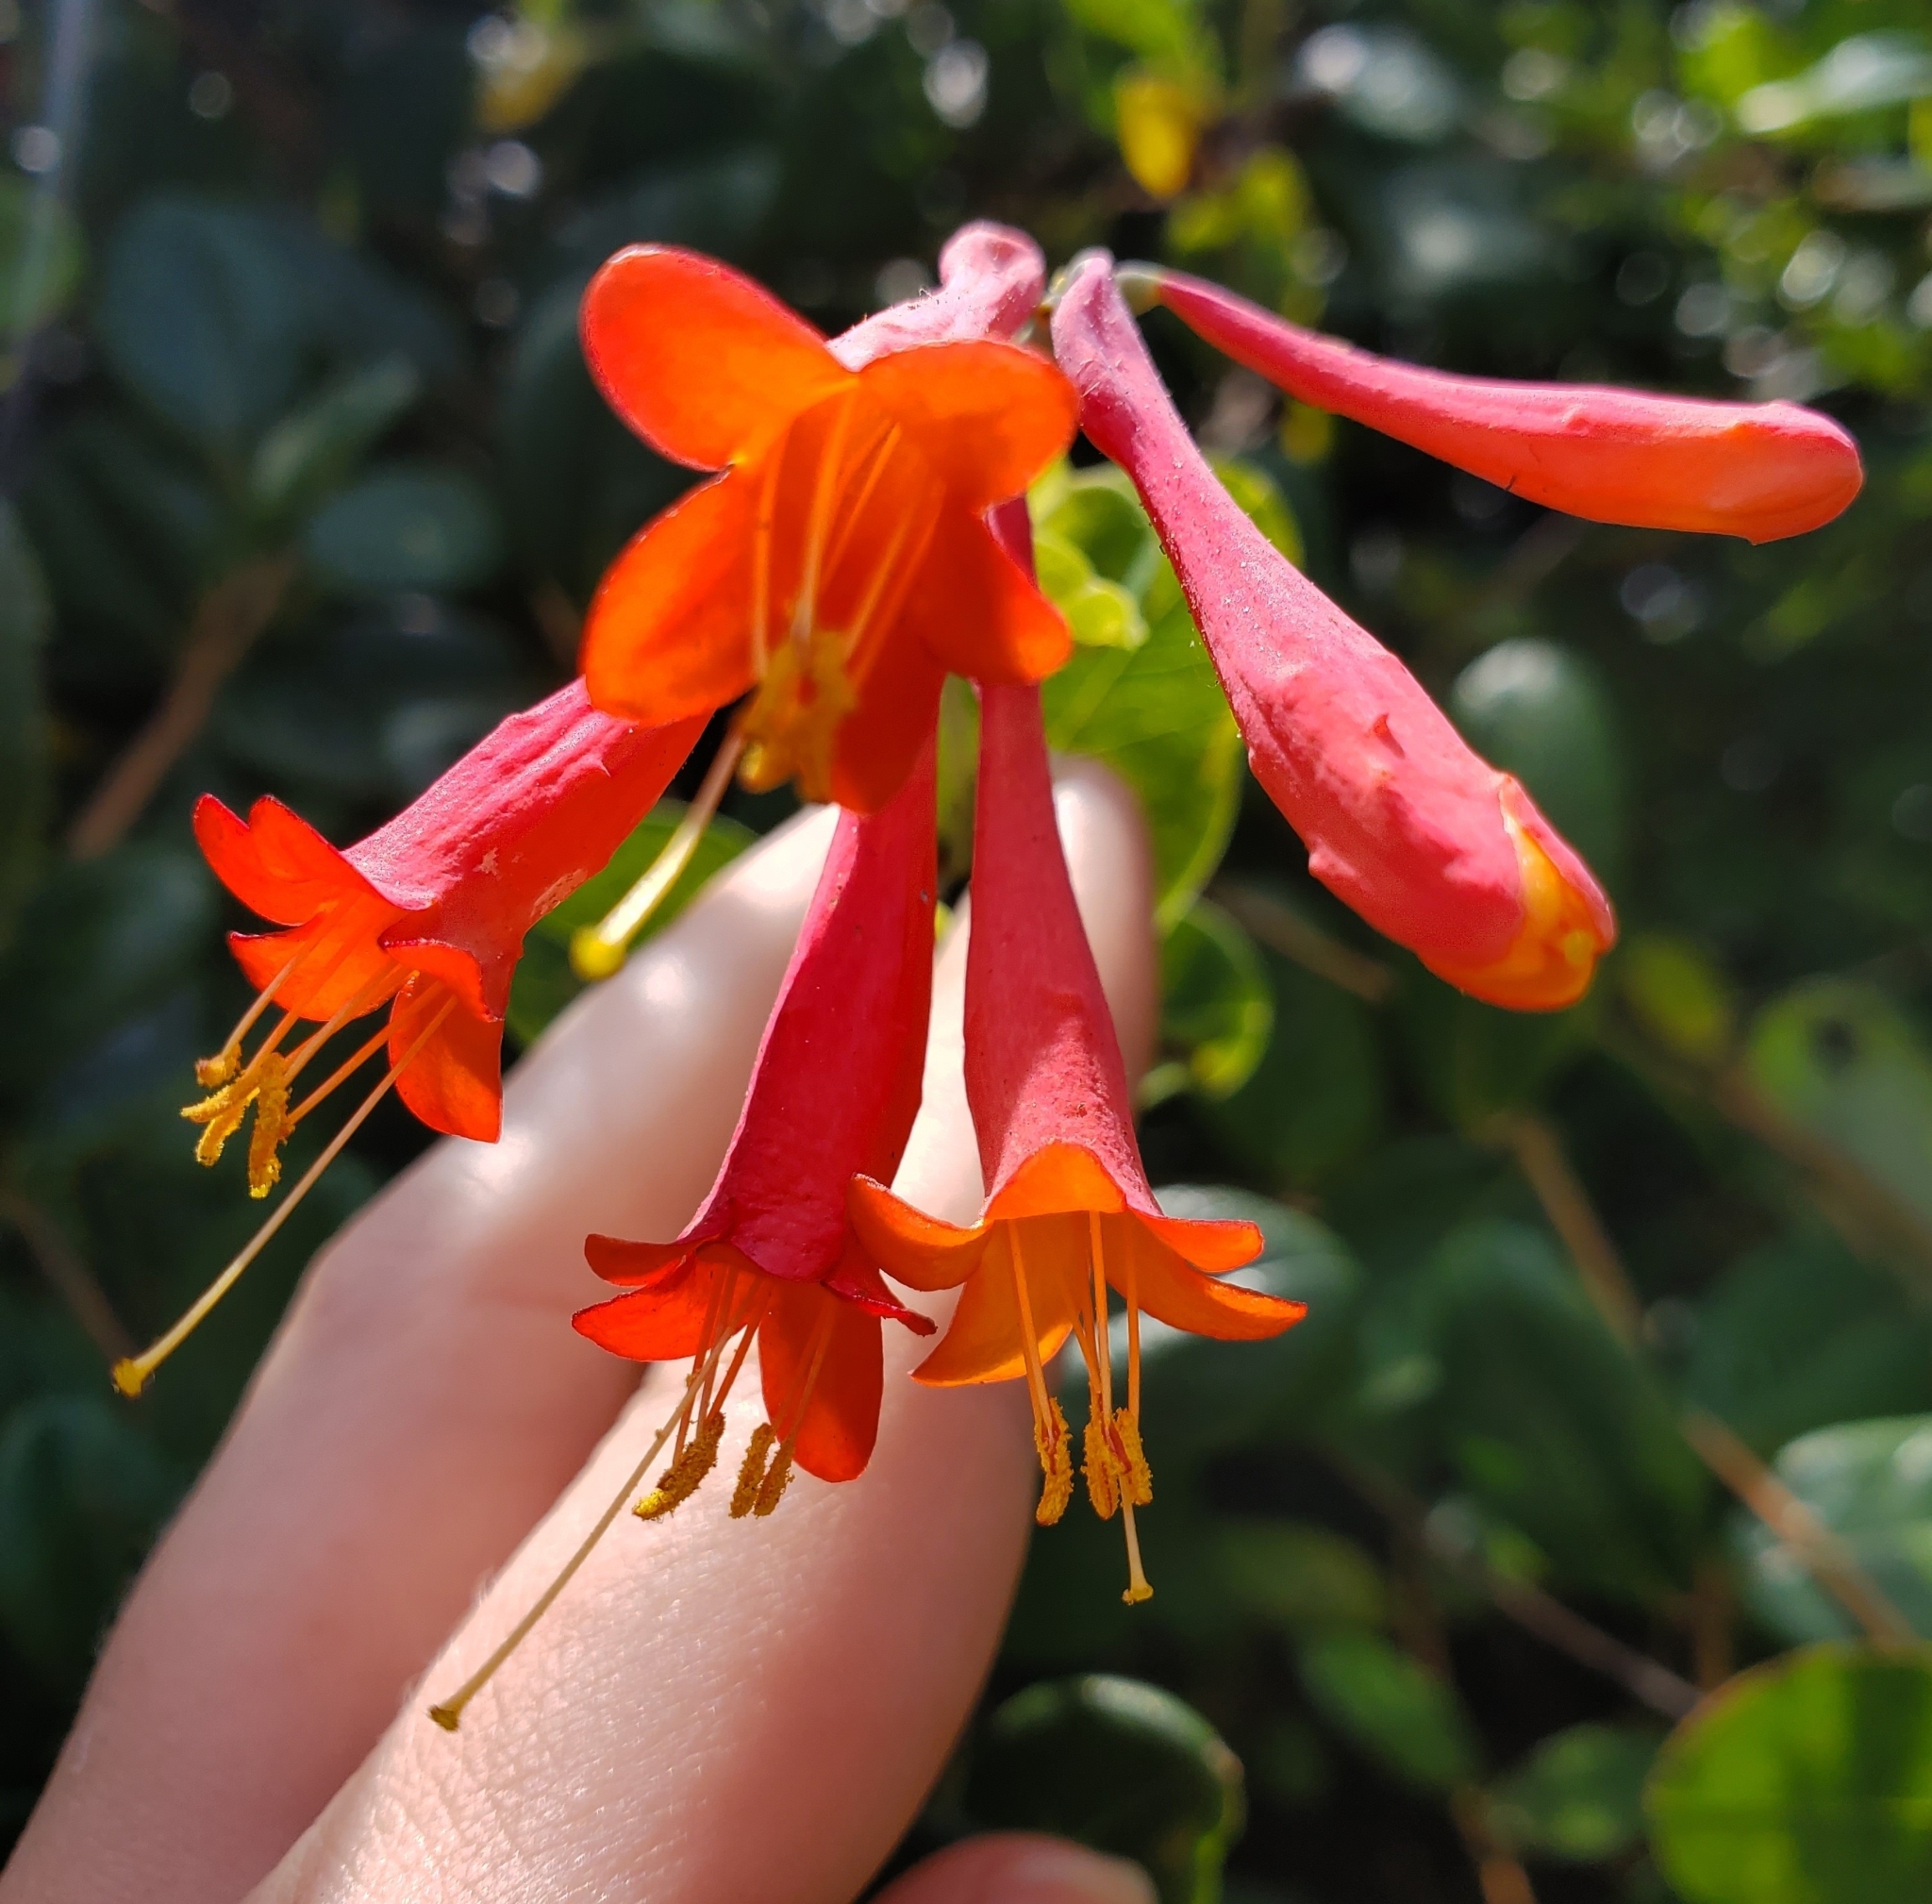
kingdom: Plantae
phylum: Tracheophyta
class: Magnoliopsida
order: Dipsacales
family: Caprifoliaceae
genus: Lonicera
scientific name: Lonicera sempervirens
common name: Coral honeysuckle
